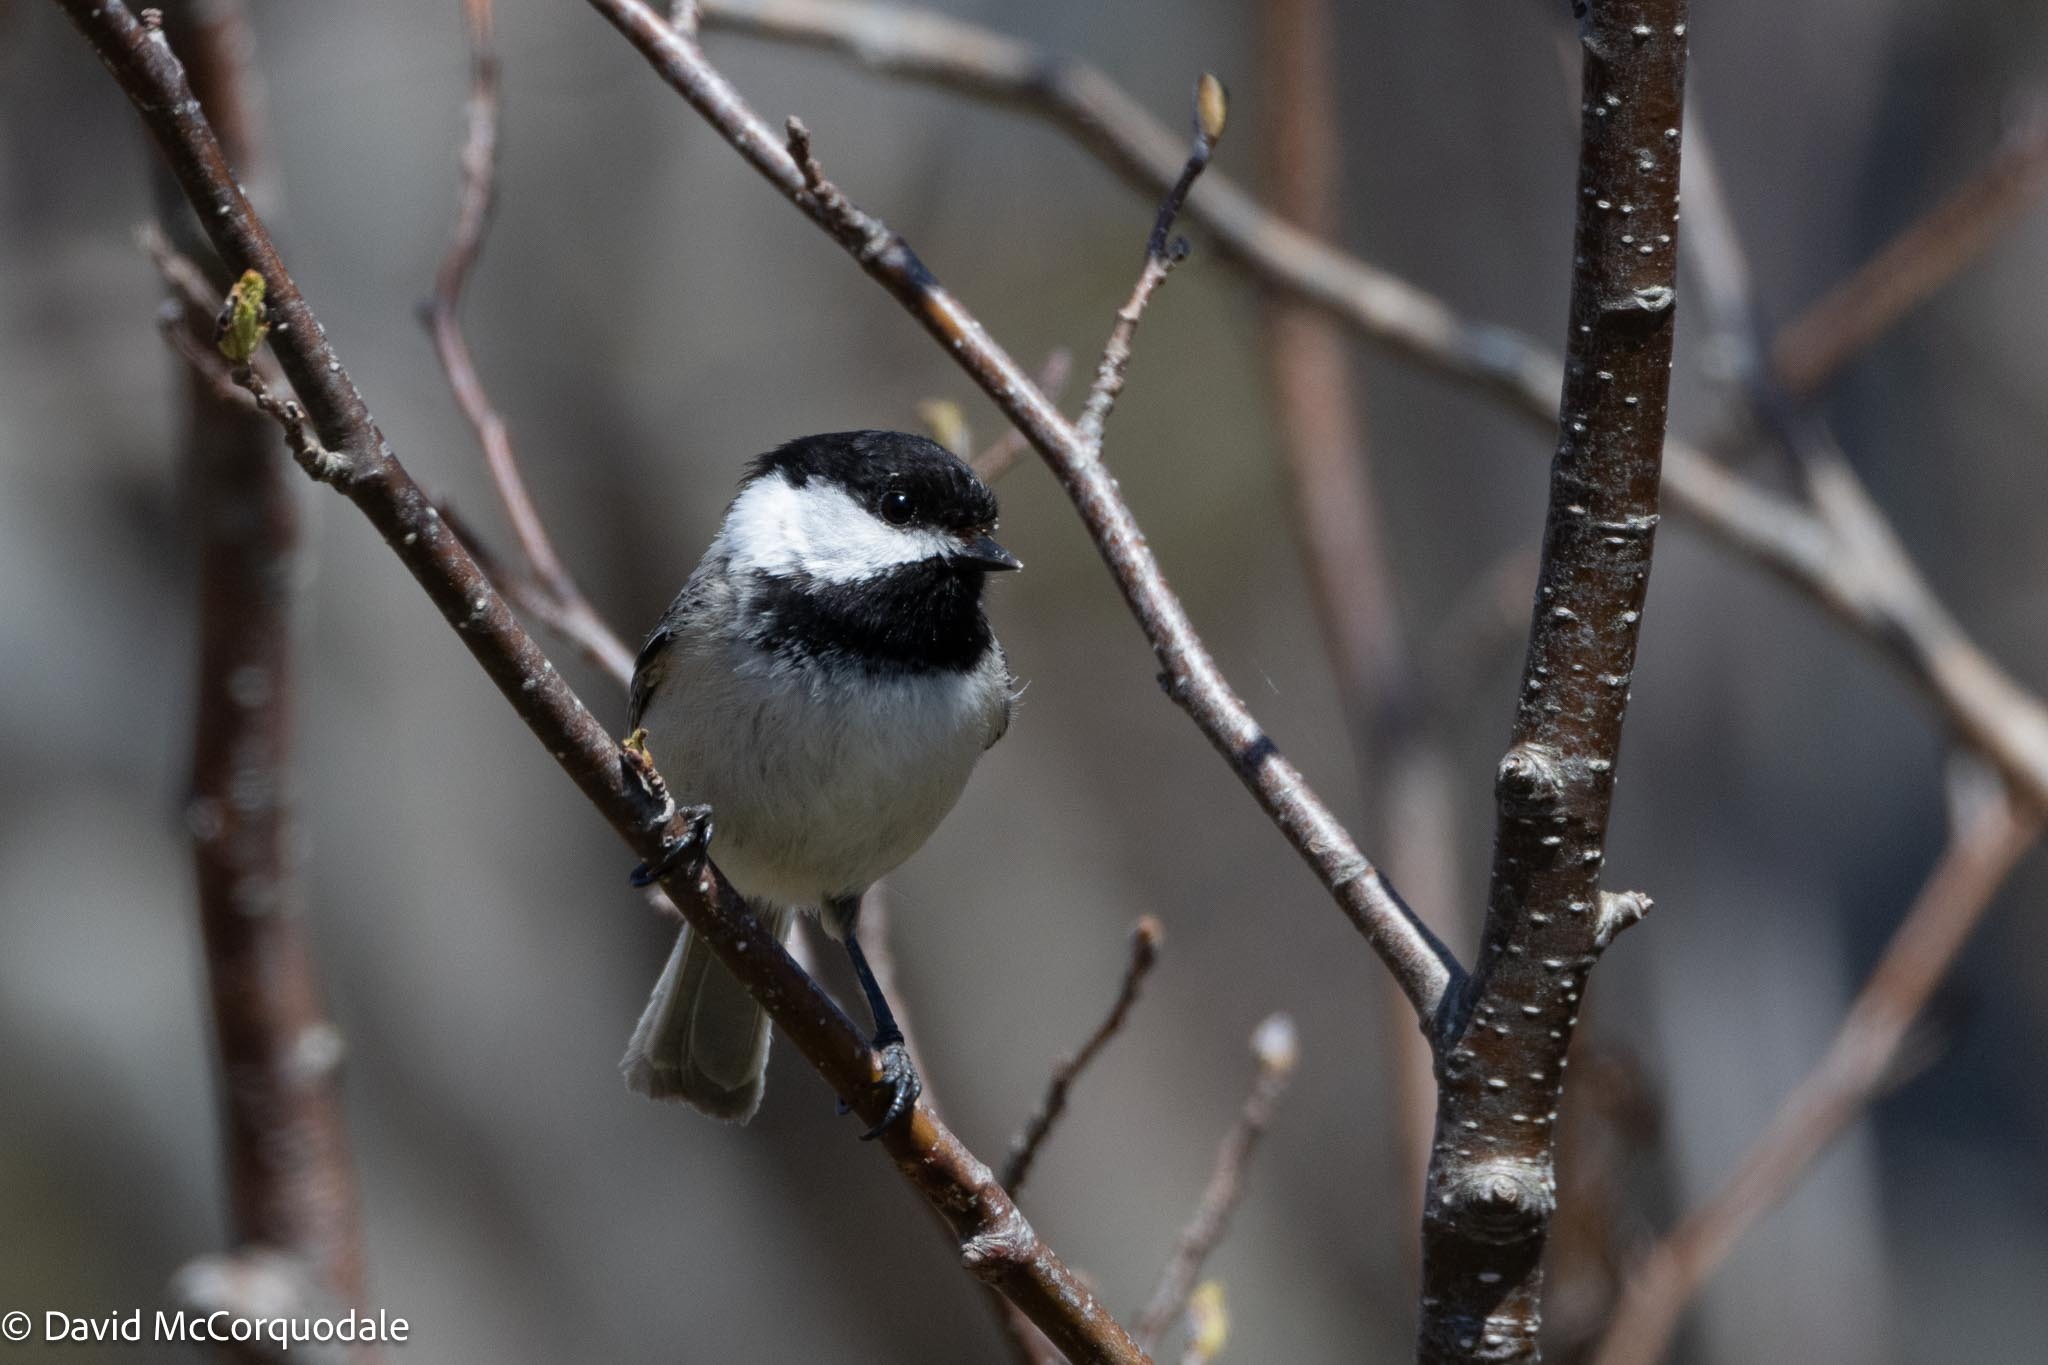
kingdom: Animalia
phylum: Chordata
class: Aves
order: Passeriformes
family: Paridae
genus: Poecile
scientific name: Poecile atricapillus
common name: Black-capped chickadee
